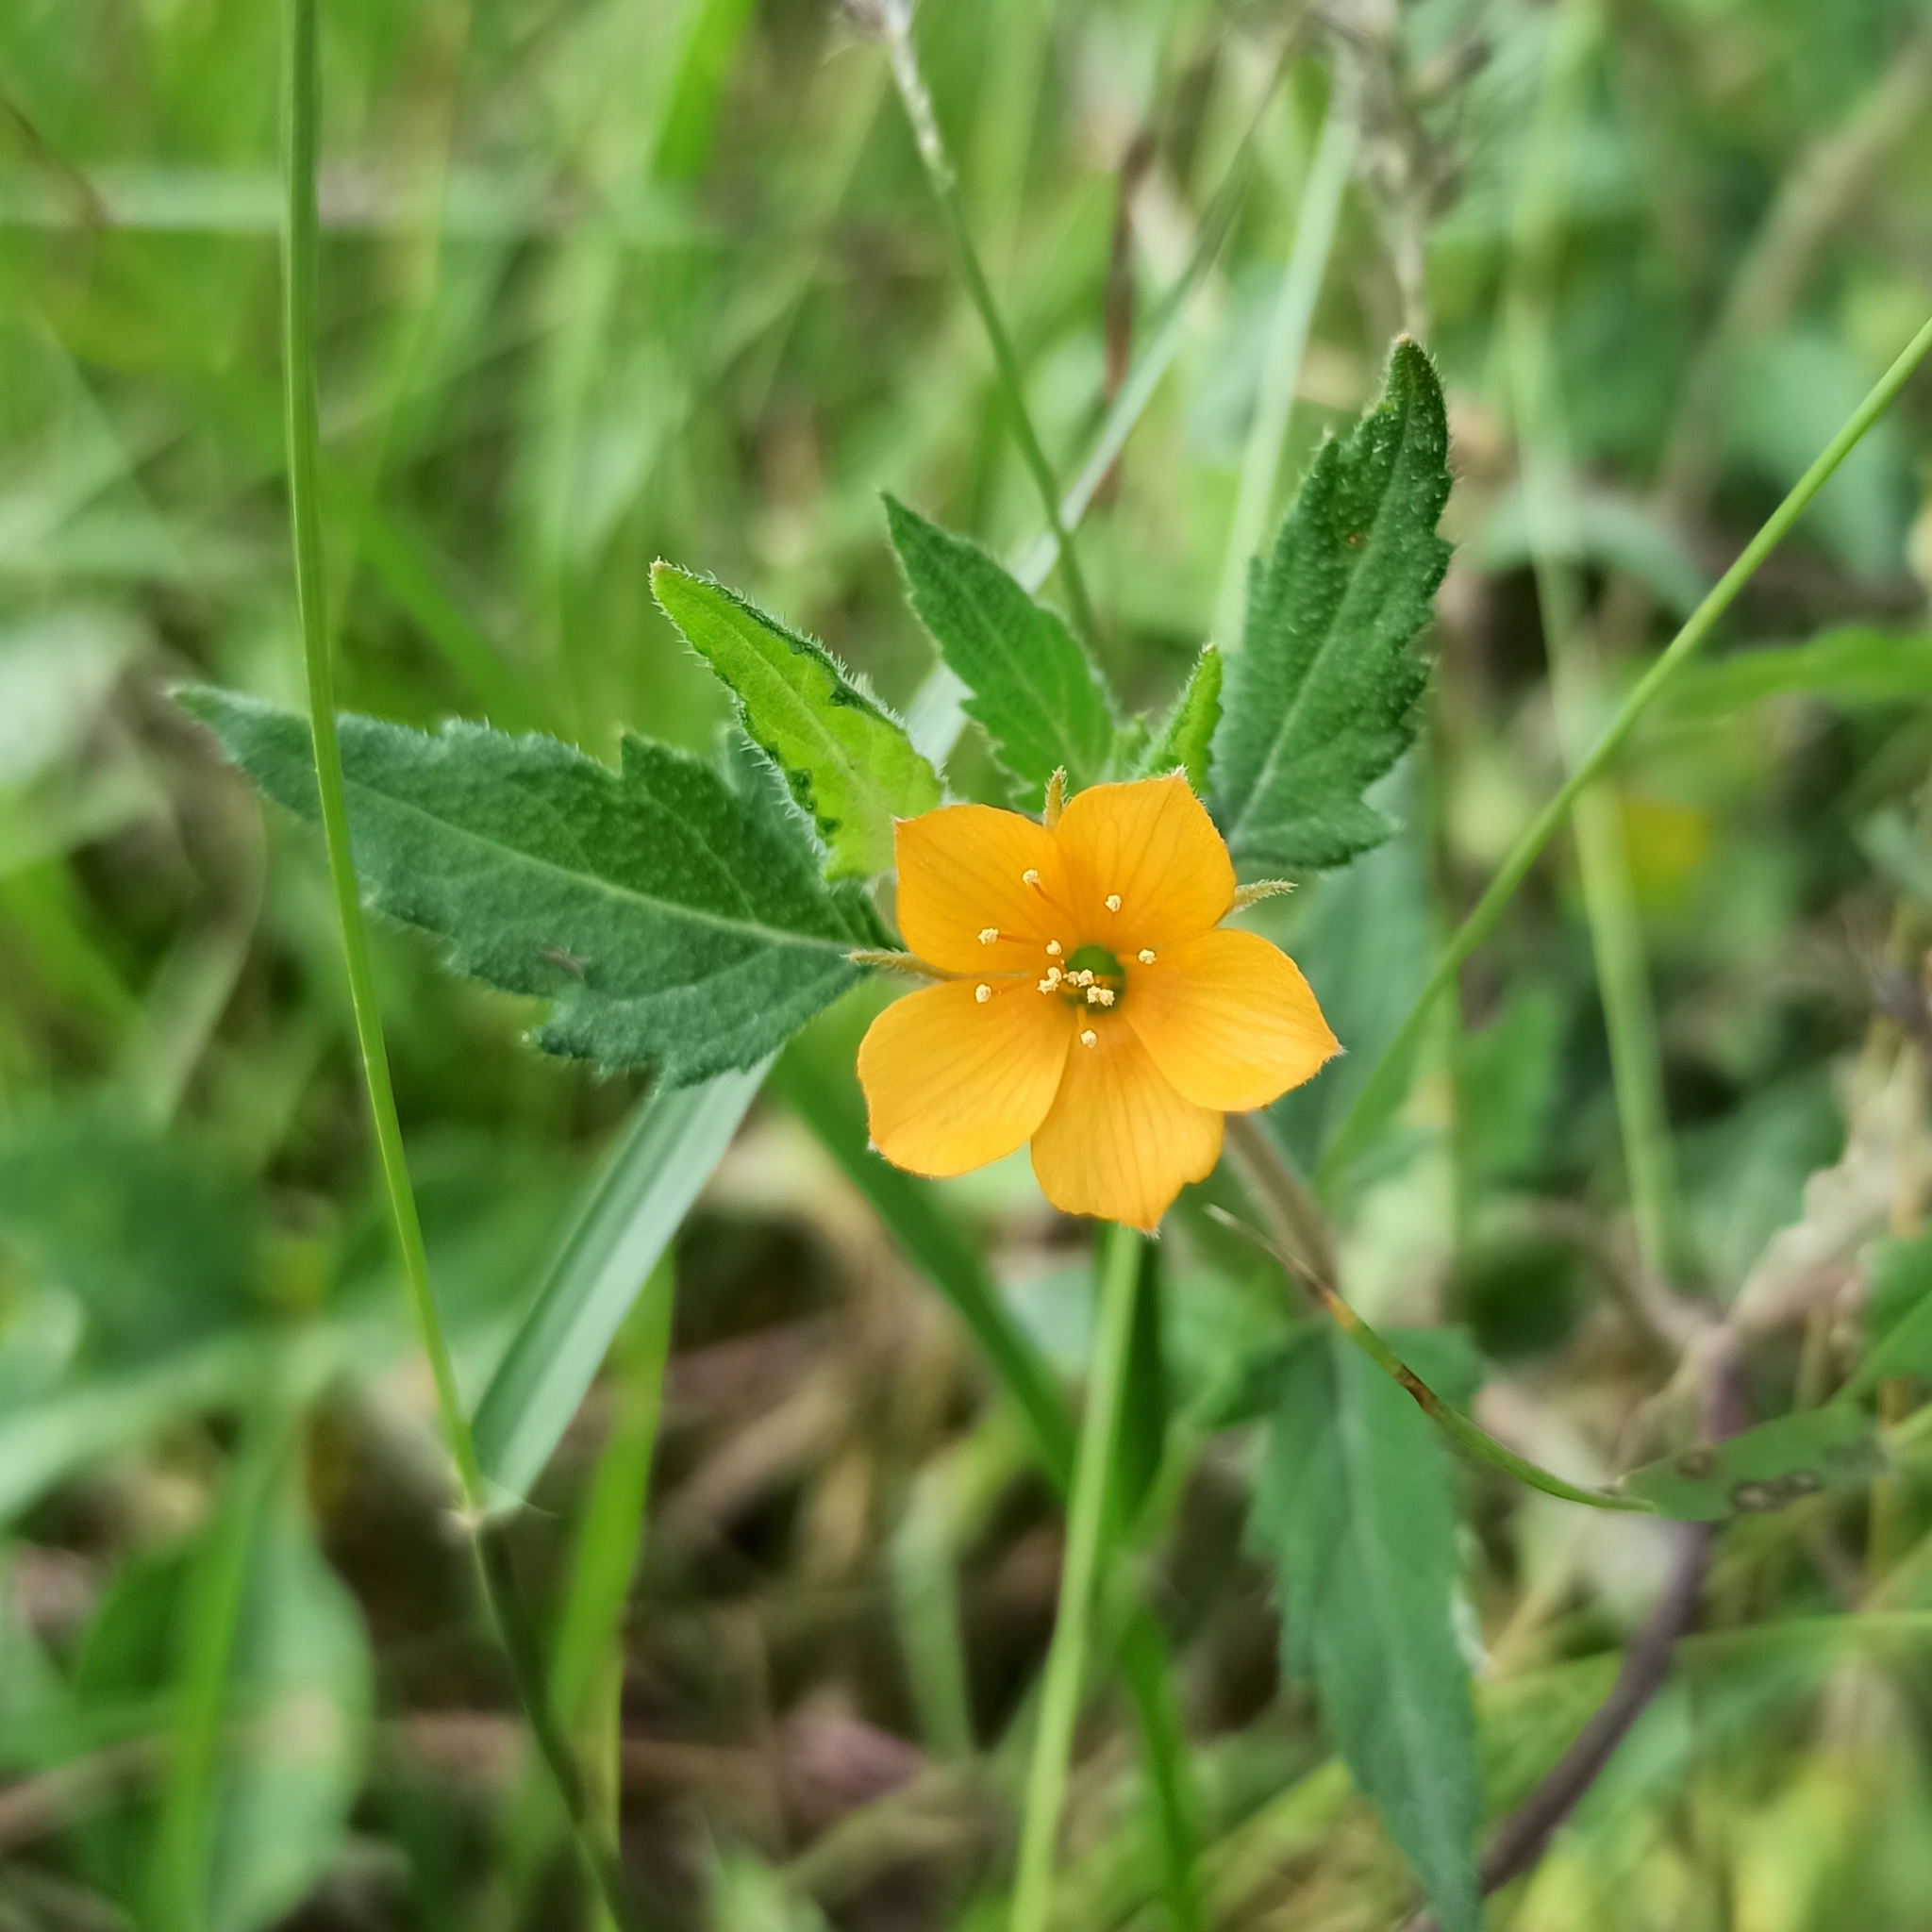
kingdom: Plantae
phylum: Tracheophyta
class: Magnoliopsida
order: Cornales
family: Loasaceae
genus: Mentzelia
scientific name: Mentzelia aspera
